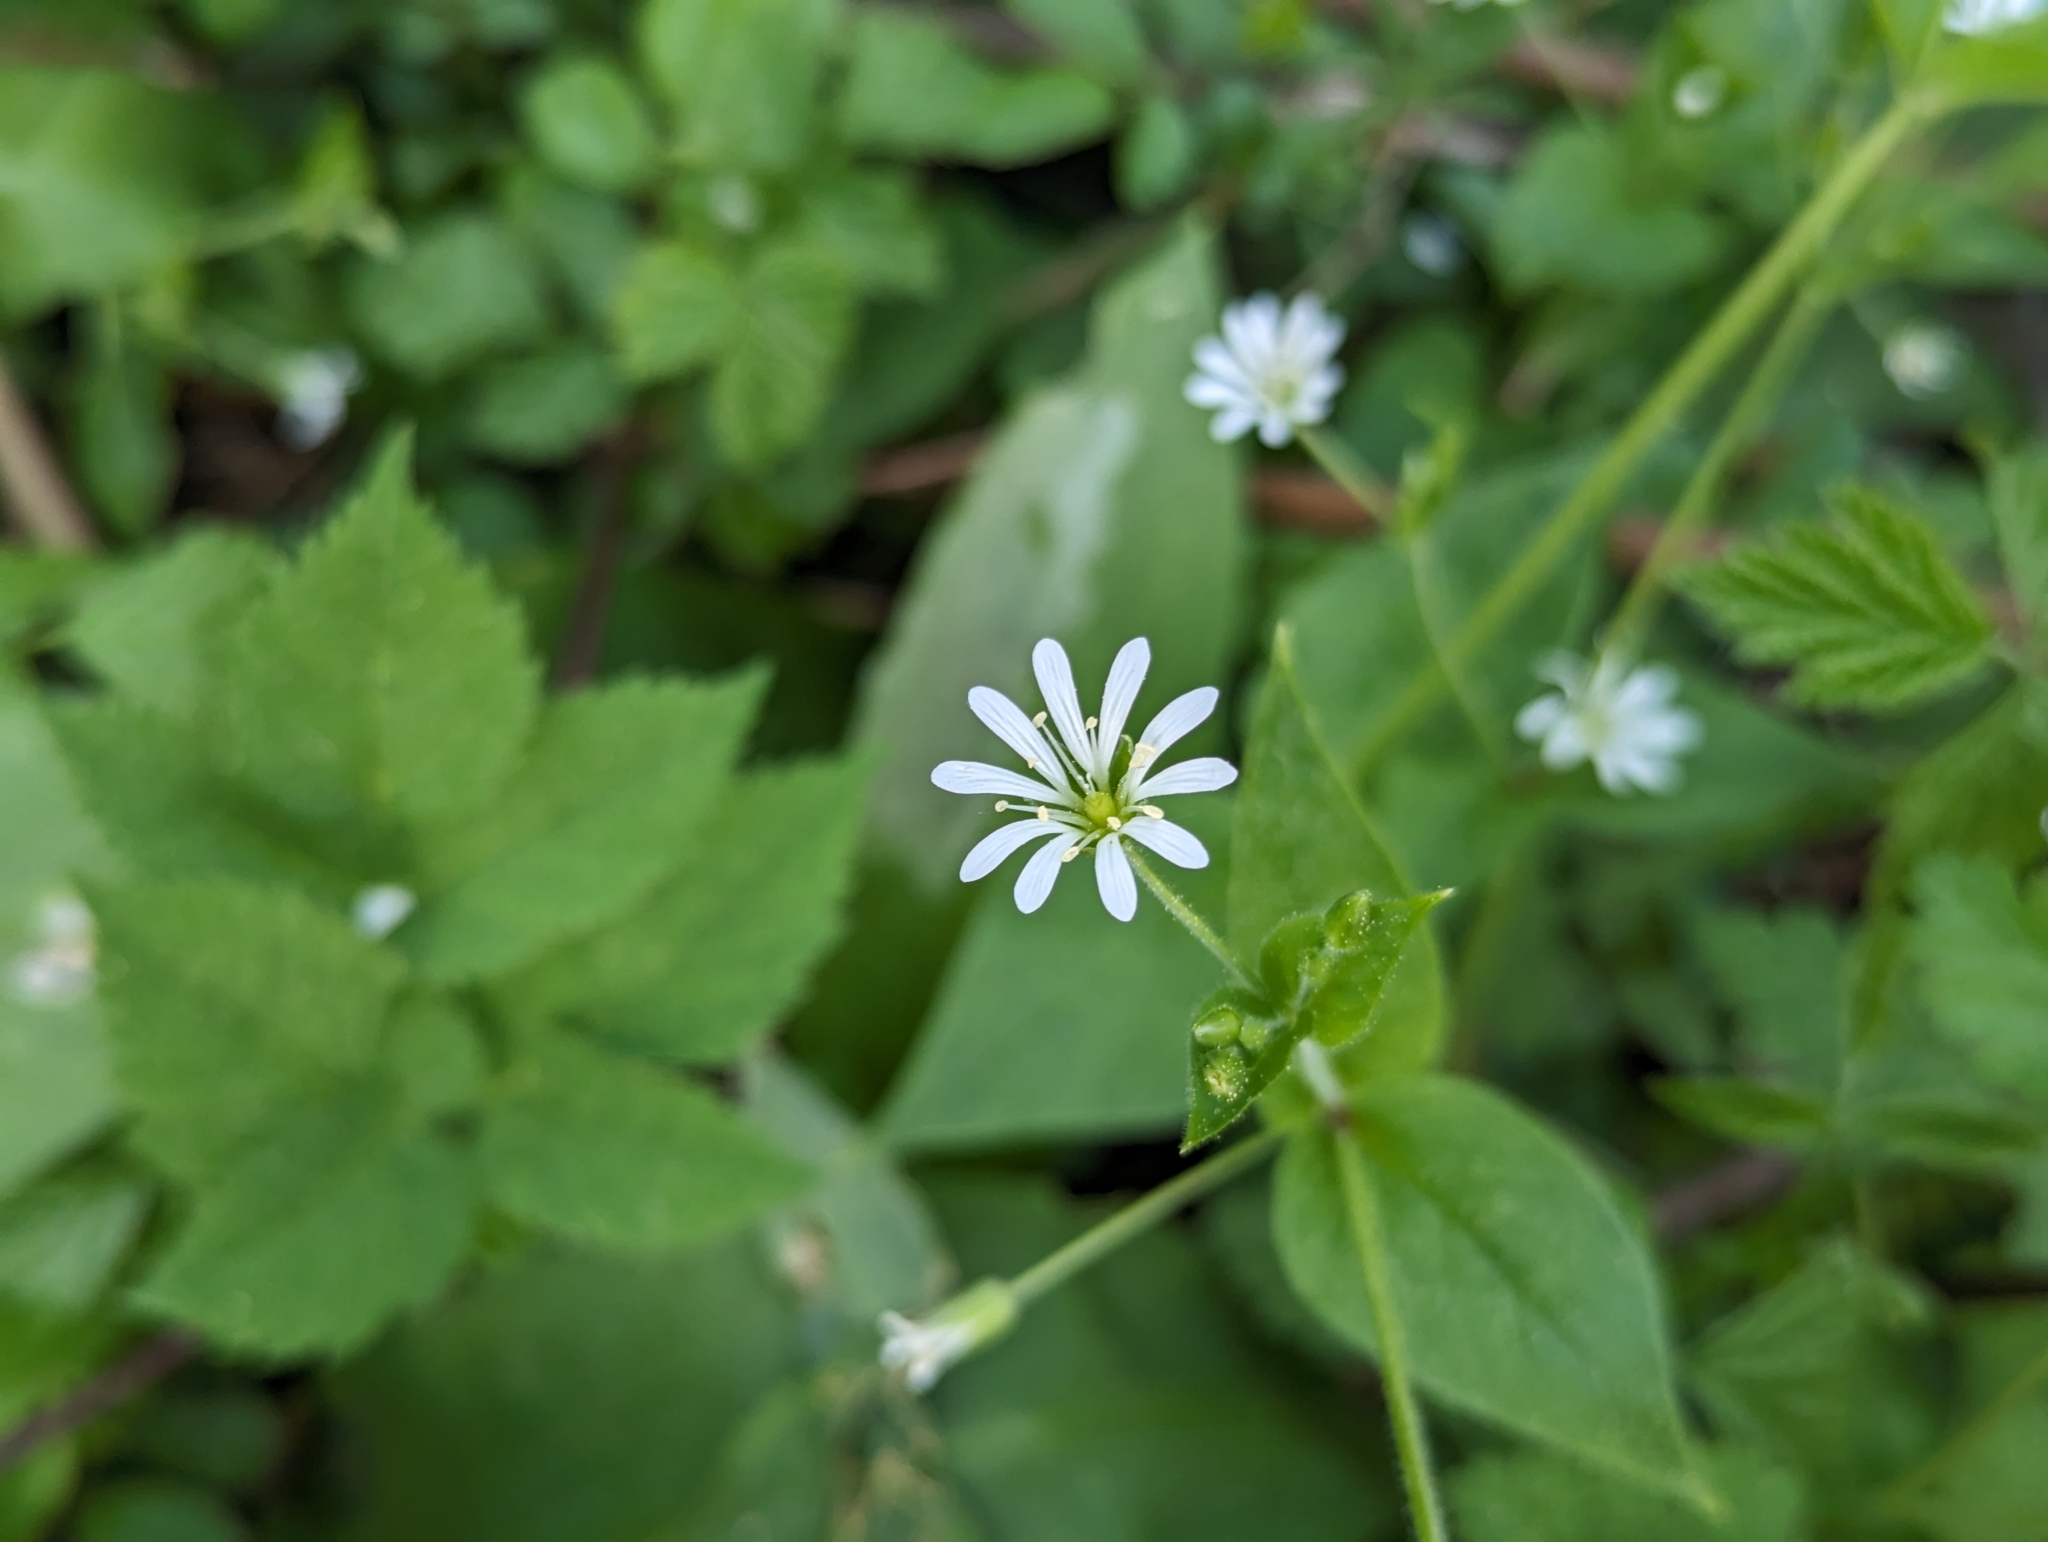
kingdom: Plantae
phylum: Tracheophyta
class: Magnoliopsida
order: Caryophyllales
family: Caryophyllaceae
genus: Stellaria
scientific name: Stellaria nemorum
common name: Wood stitchwort
